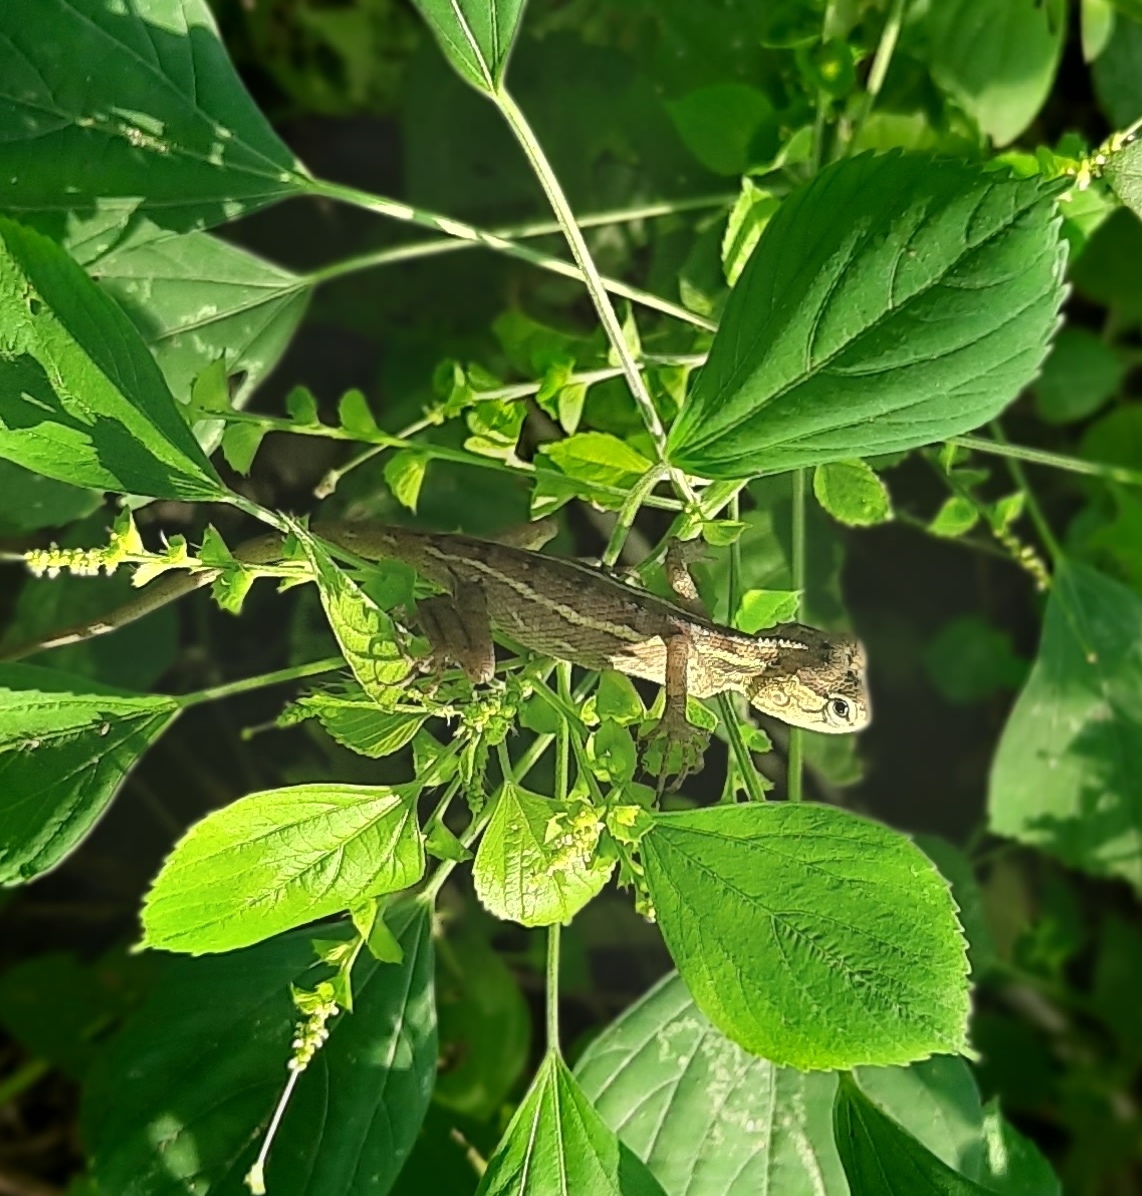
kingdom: Animalia
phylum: Chordata
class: Squamata
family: Agamidae
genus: Calotes
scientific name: Calotes versicolor
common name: Oriental garden lizard
